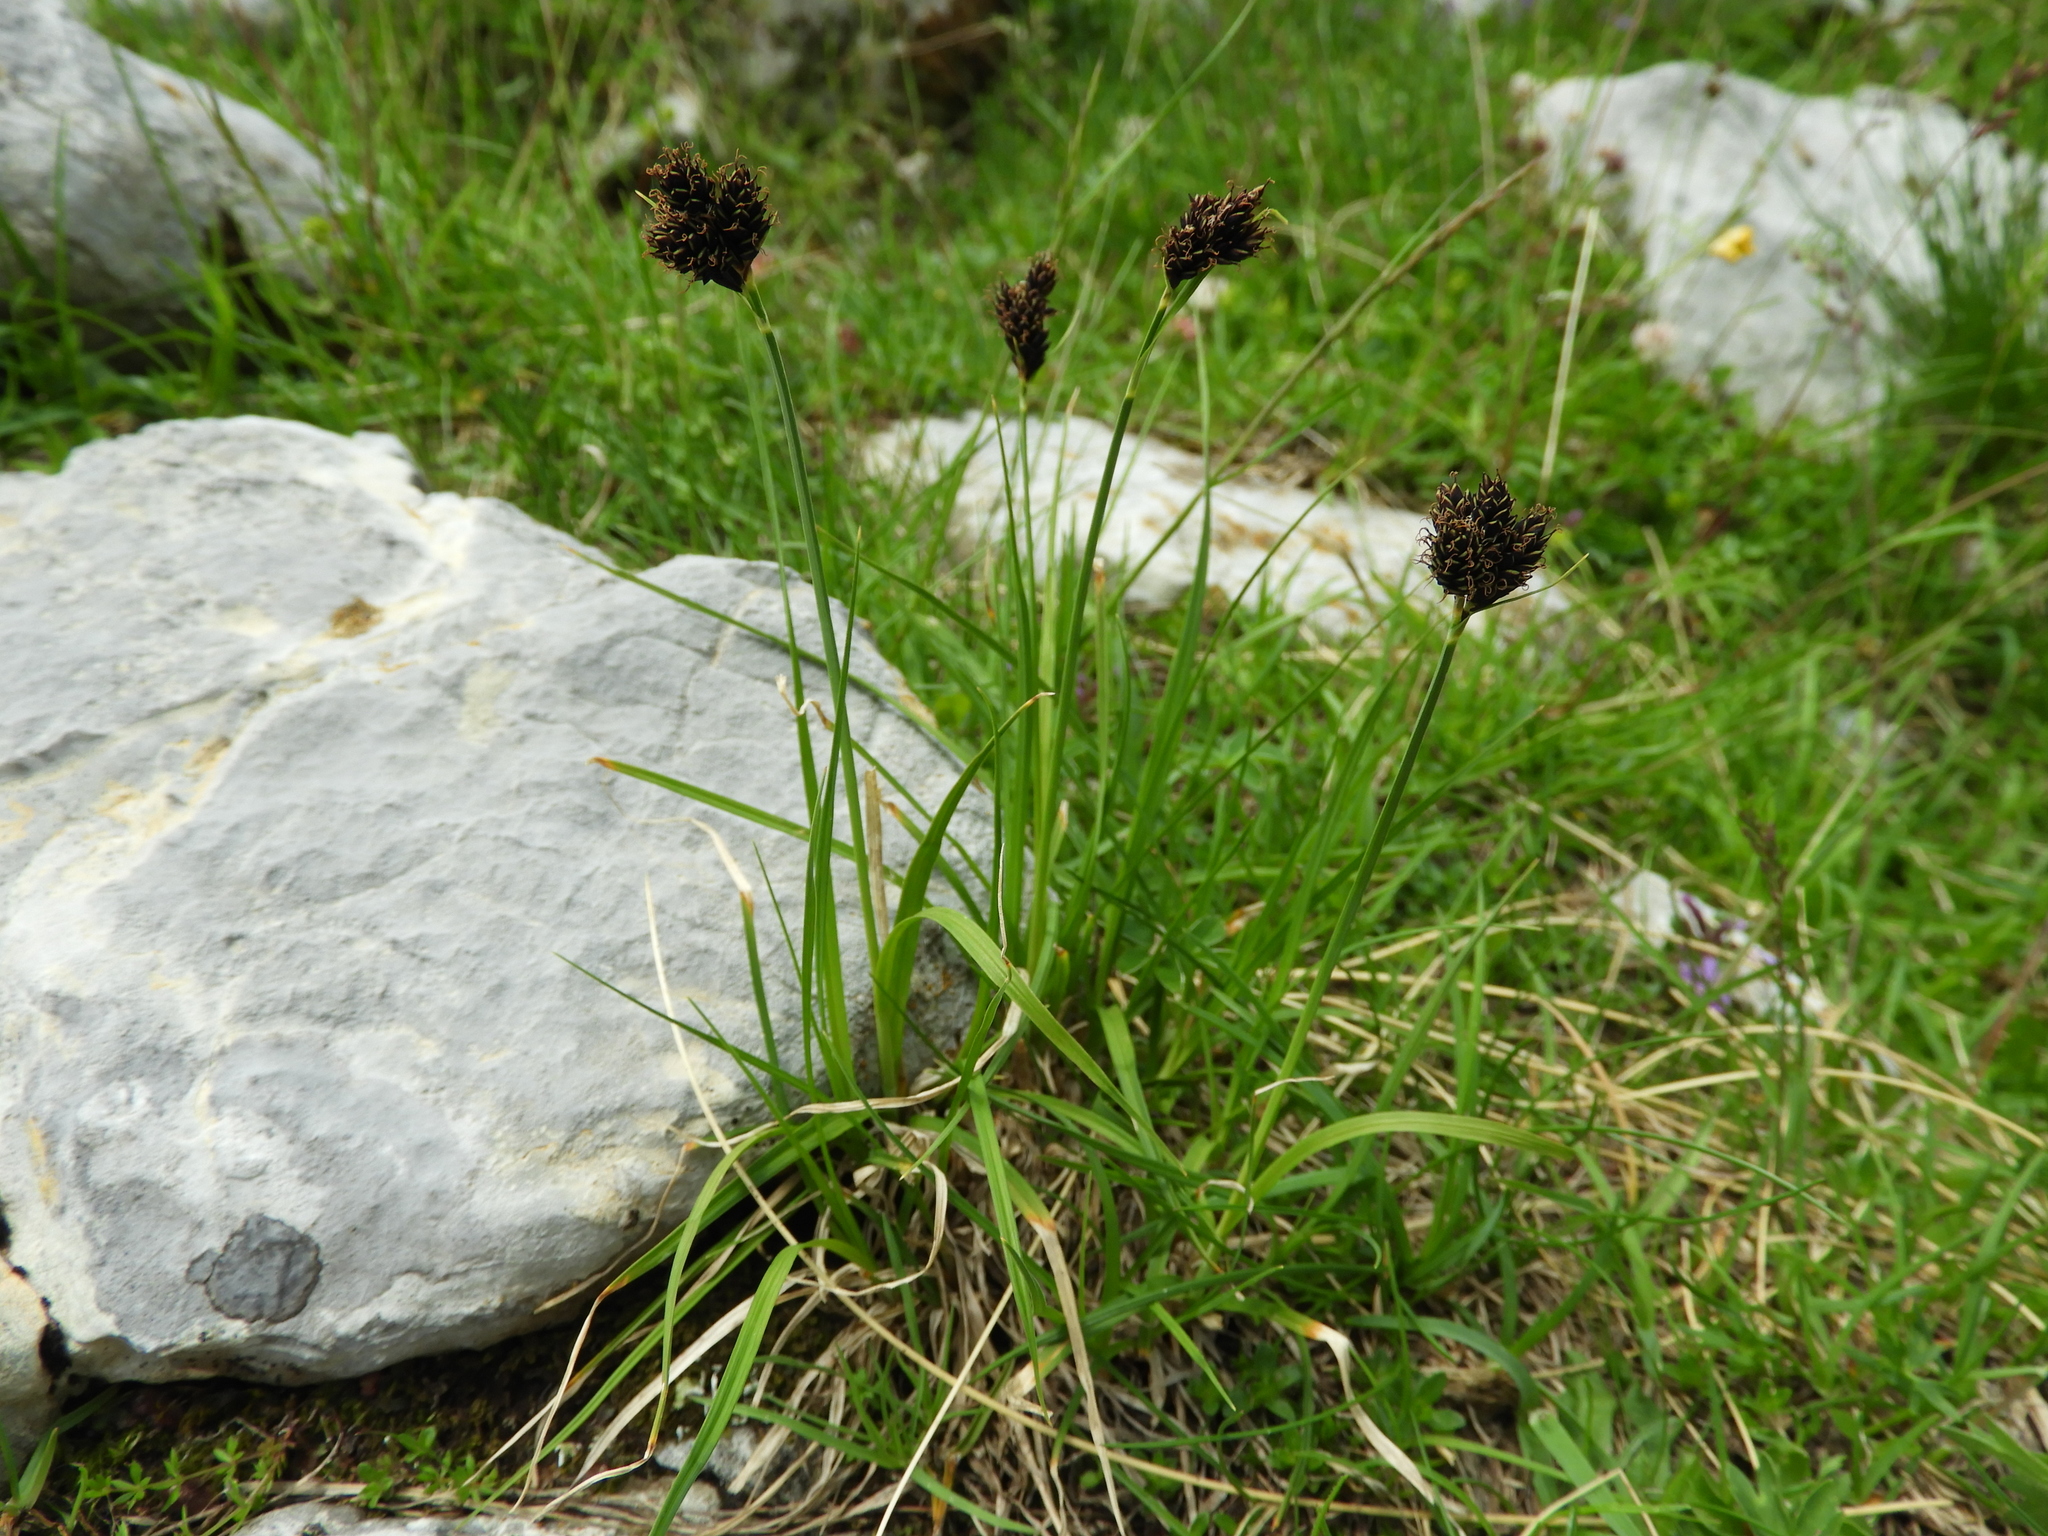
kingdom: Plantae
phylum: Tracheophyta
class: Liliopsida
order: Poales
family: Cyperaceae
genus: Carex
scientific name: Carex parviflora
